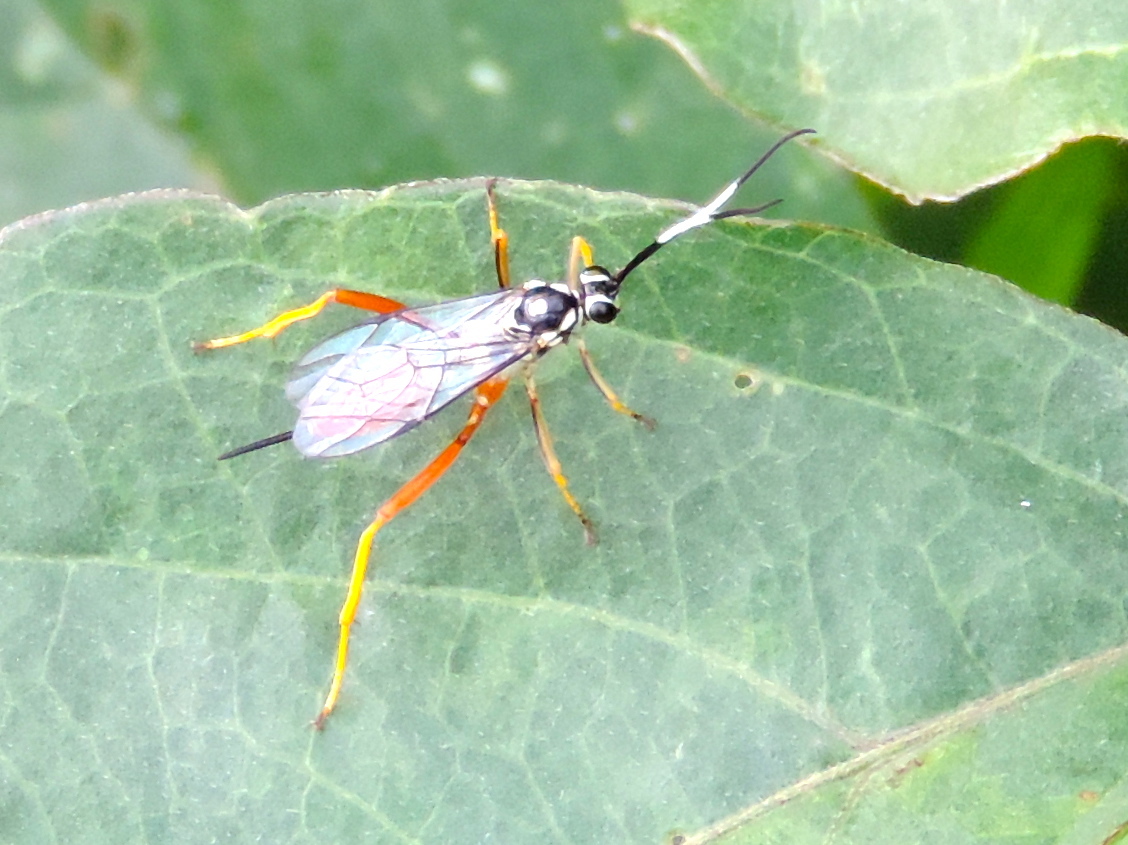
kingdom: Animalia
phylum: Arthropoda
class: Insecta
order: Hymenoptera
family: Ichneumonidae
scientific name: Ichneumonidae
